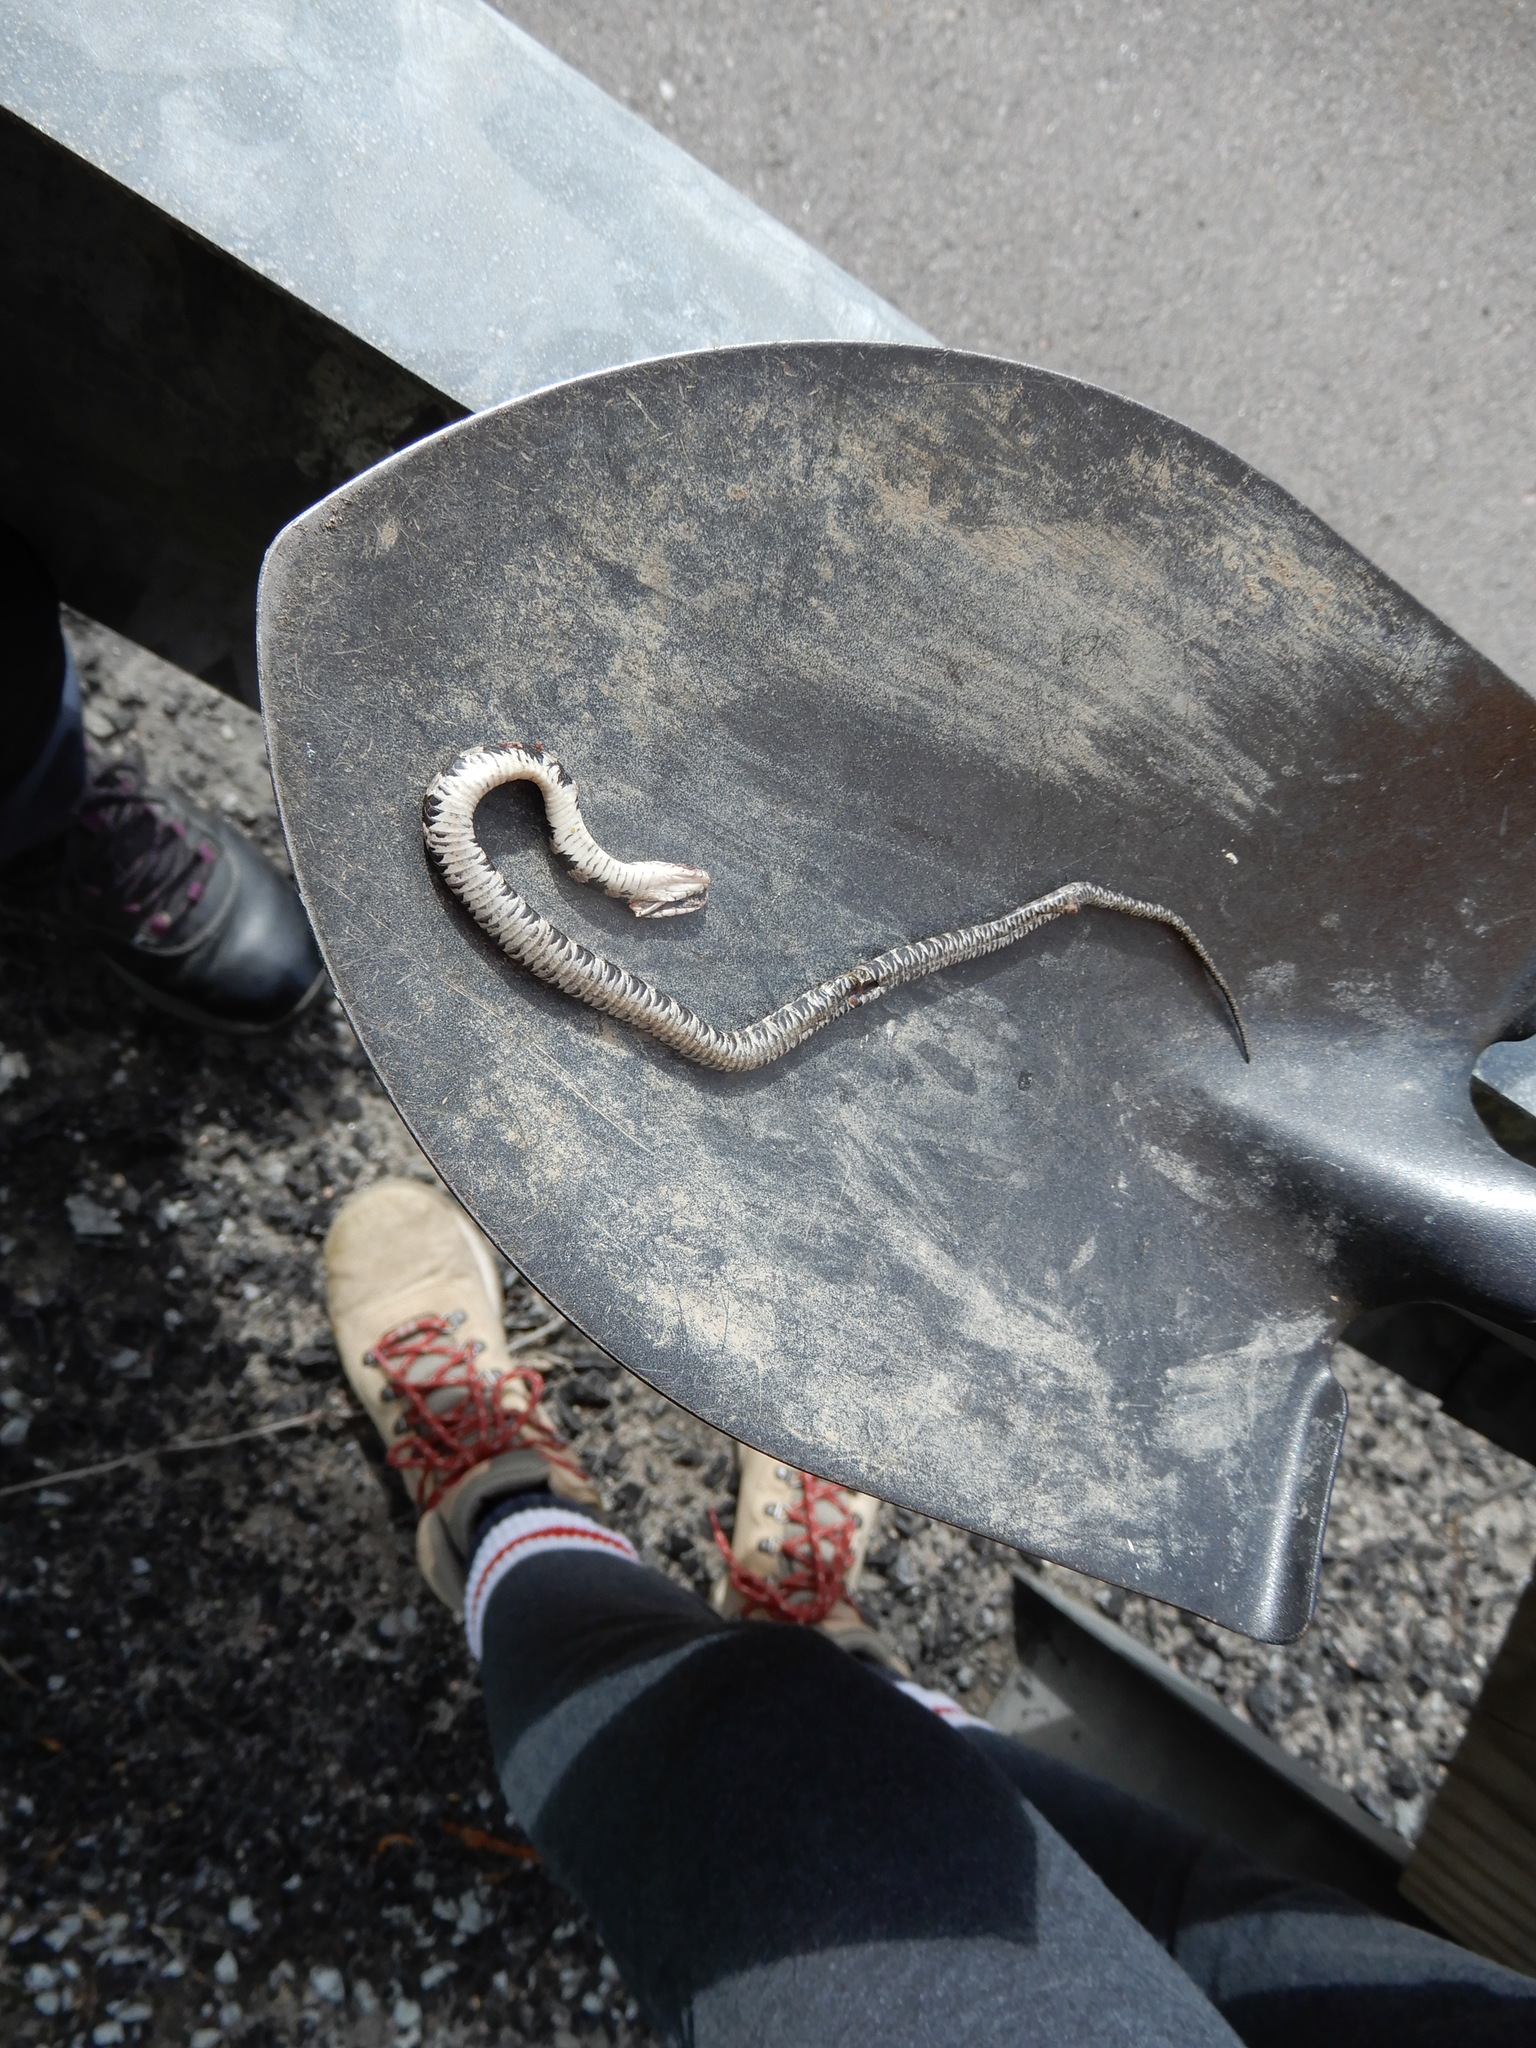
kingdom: Animalia
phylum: Chordata
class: Squamata
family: Colubridae
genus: Nerodia
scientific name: Nerodia sipedon
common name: Northern water snake
